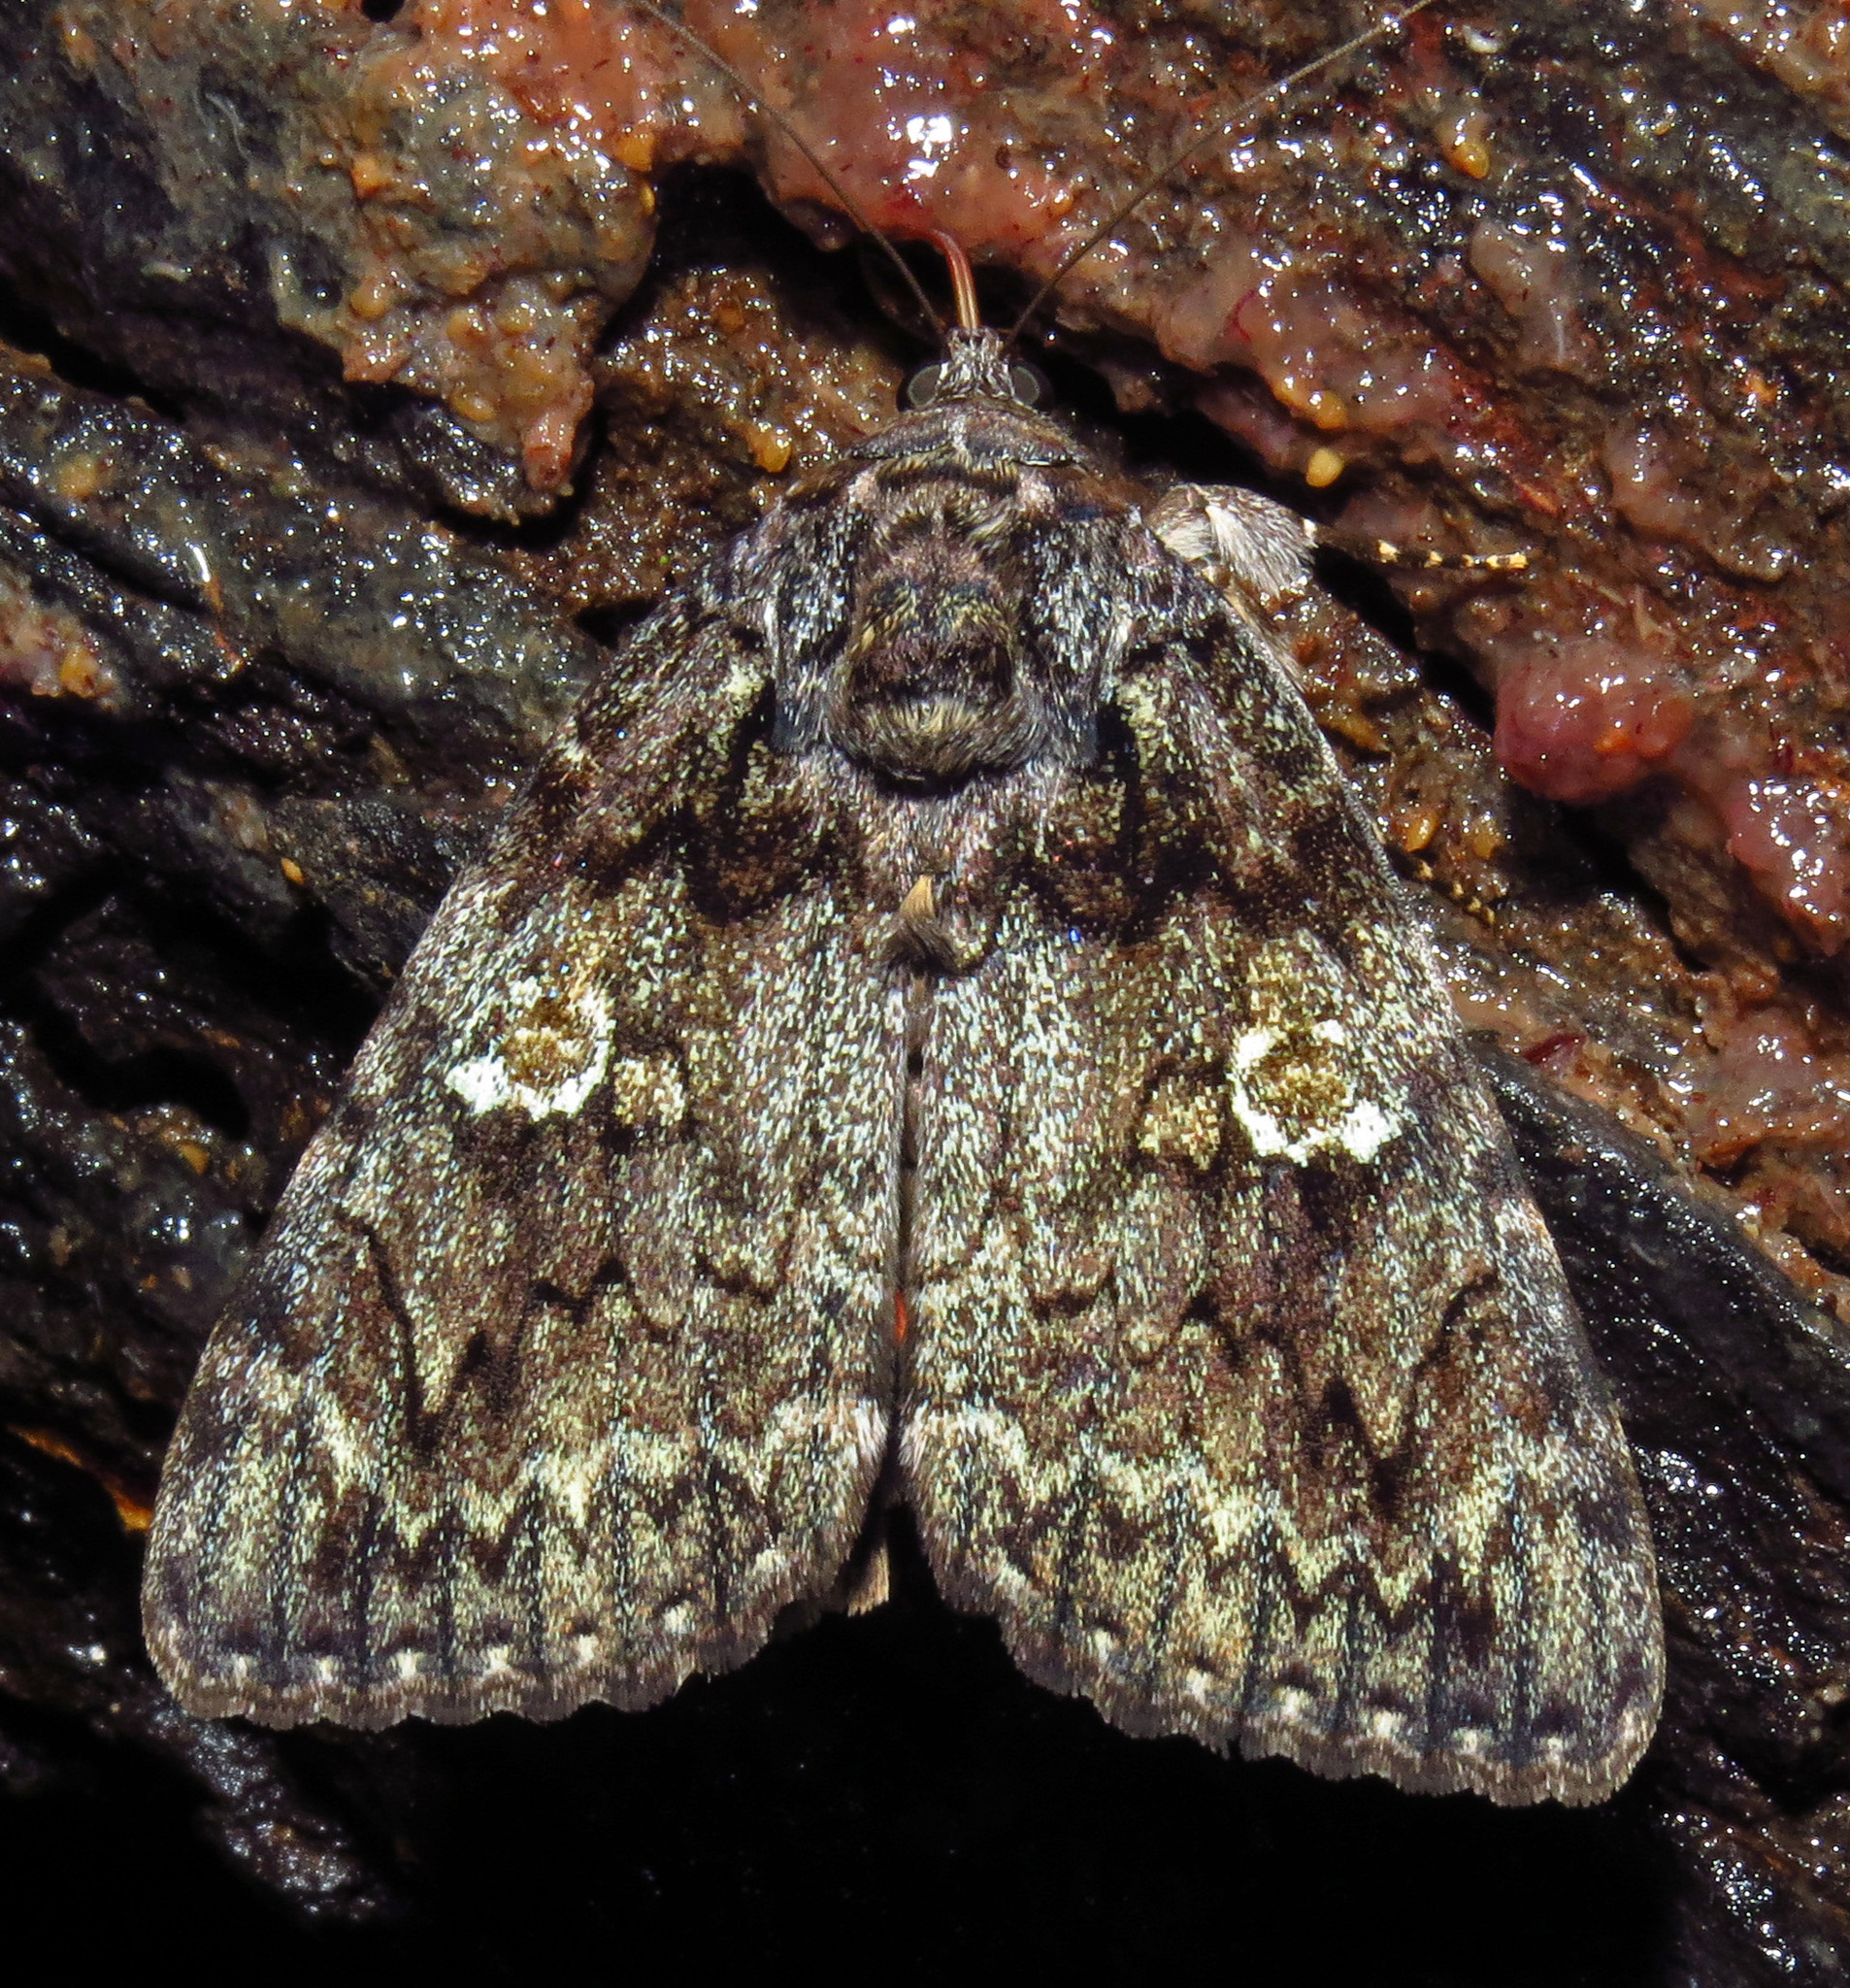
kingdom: Animalia
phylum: Arthropoda
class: Insecta
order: Lepidoptera
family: Erebidae
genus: Catocala
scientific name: Catocala ilia
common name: Ilia underwing
